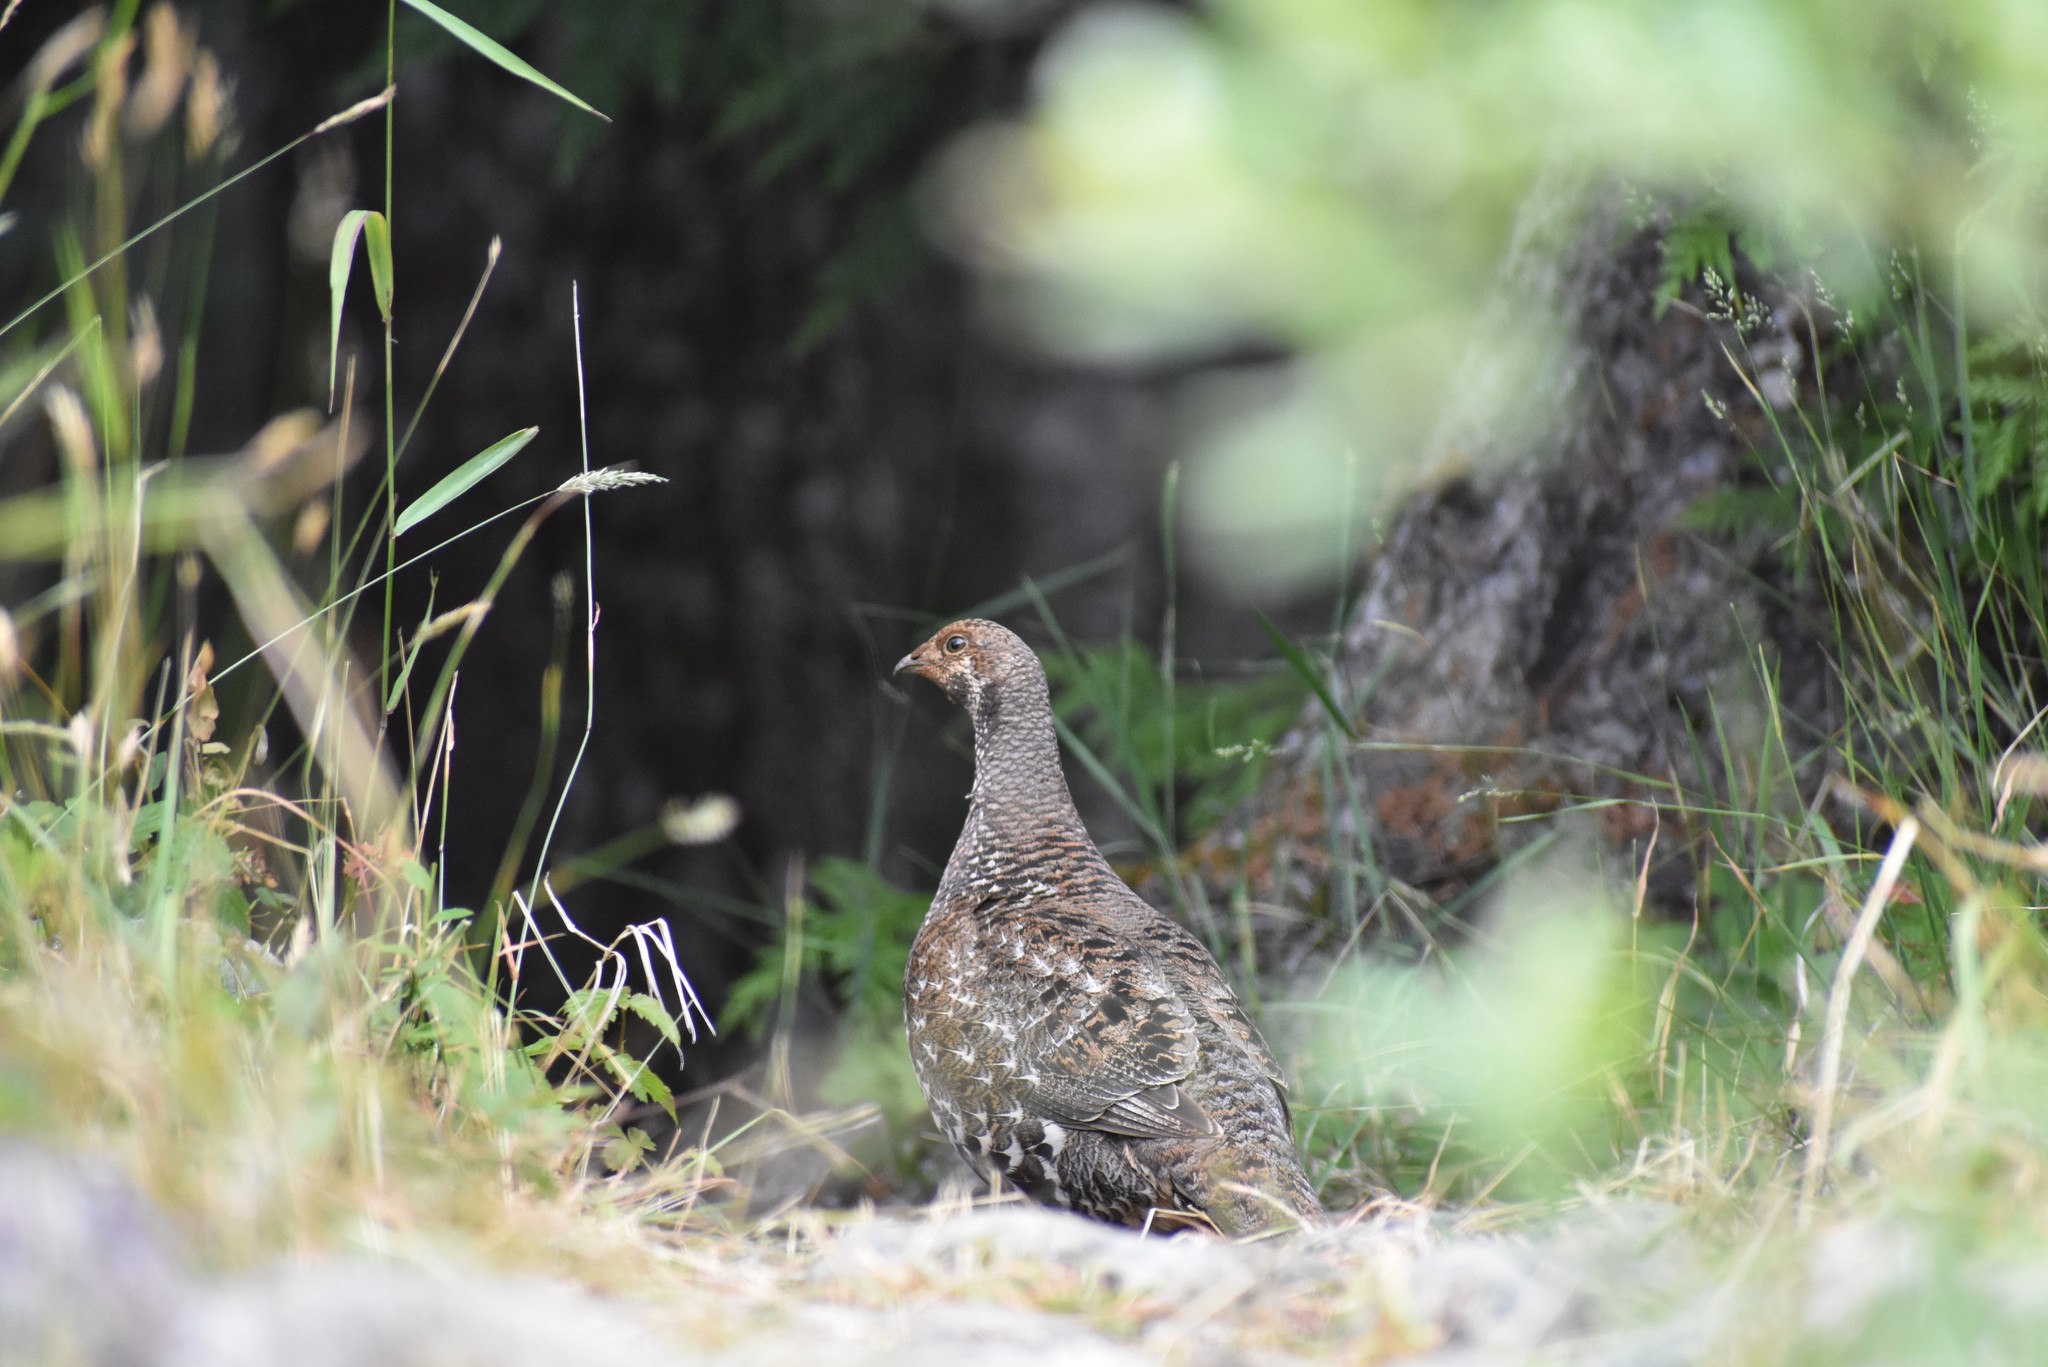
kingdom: Animalia
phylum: Chordata
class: Aves
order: Galliformes
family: Phasianidae
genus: Dendragapus
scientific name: Dendragapus fuliginosus
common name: Sooty grouse
